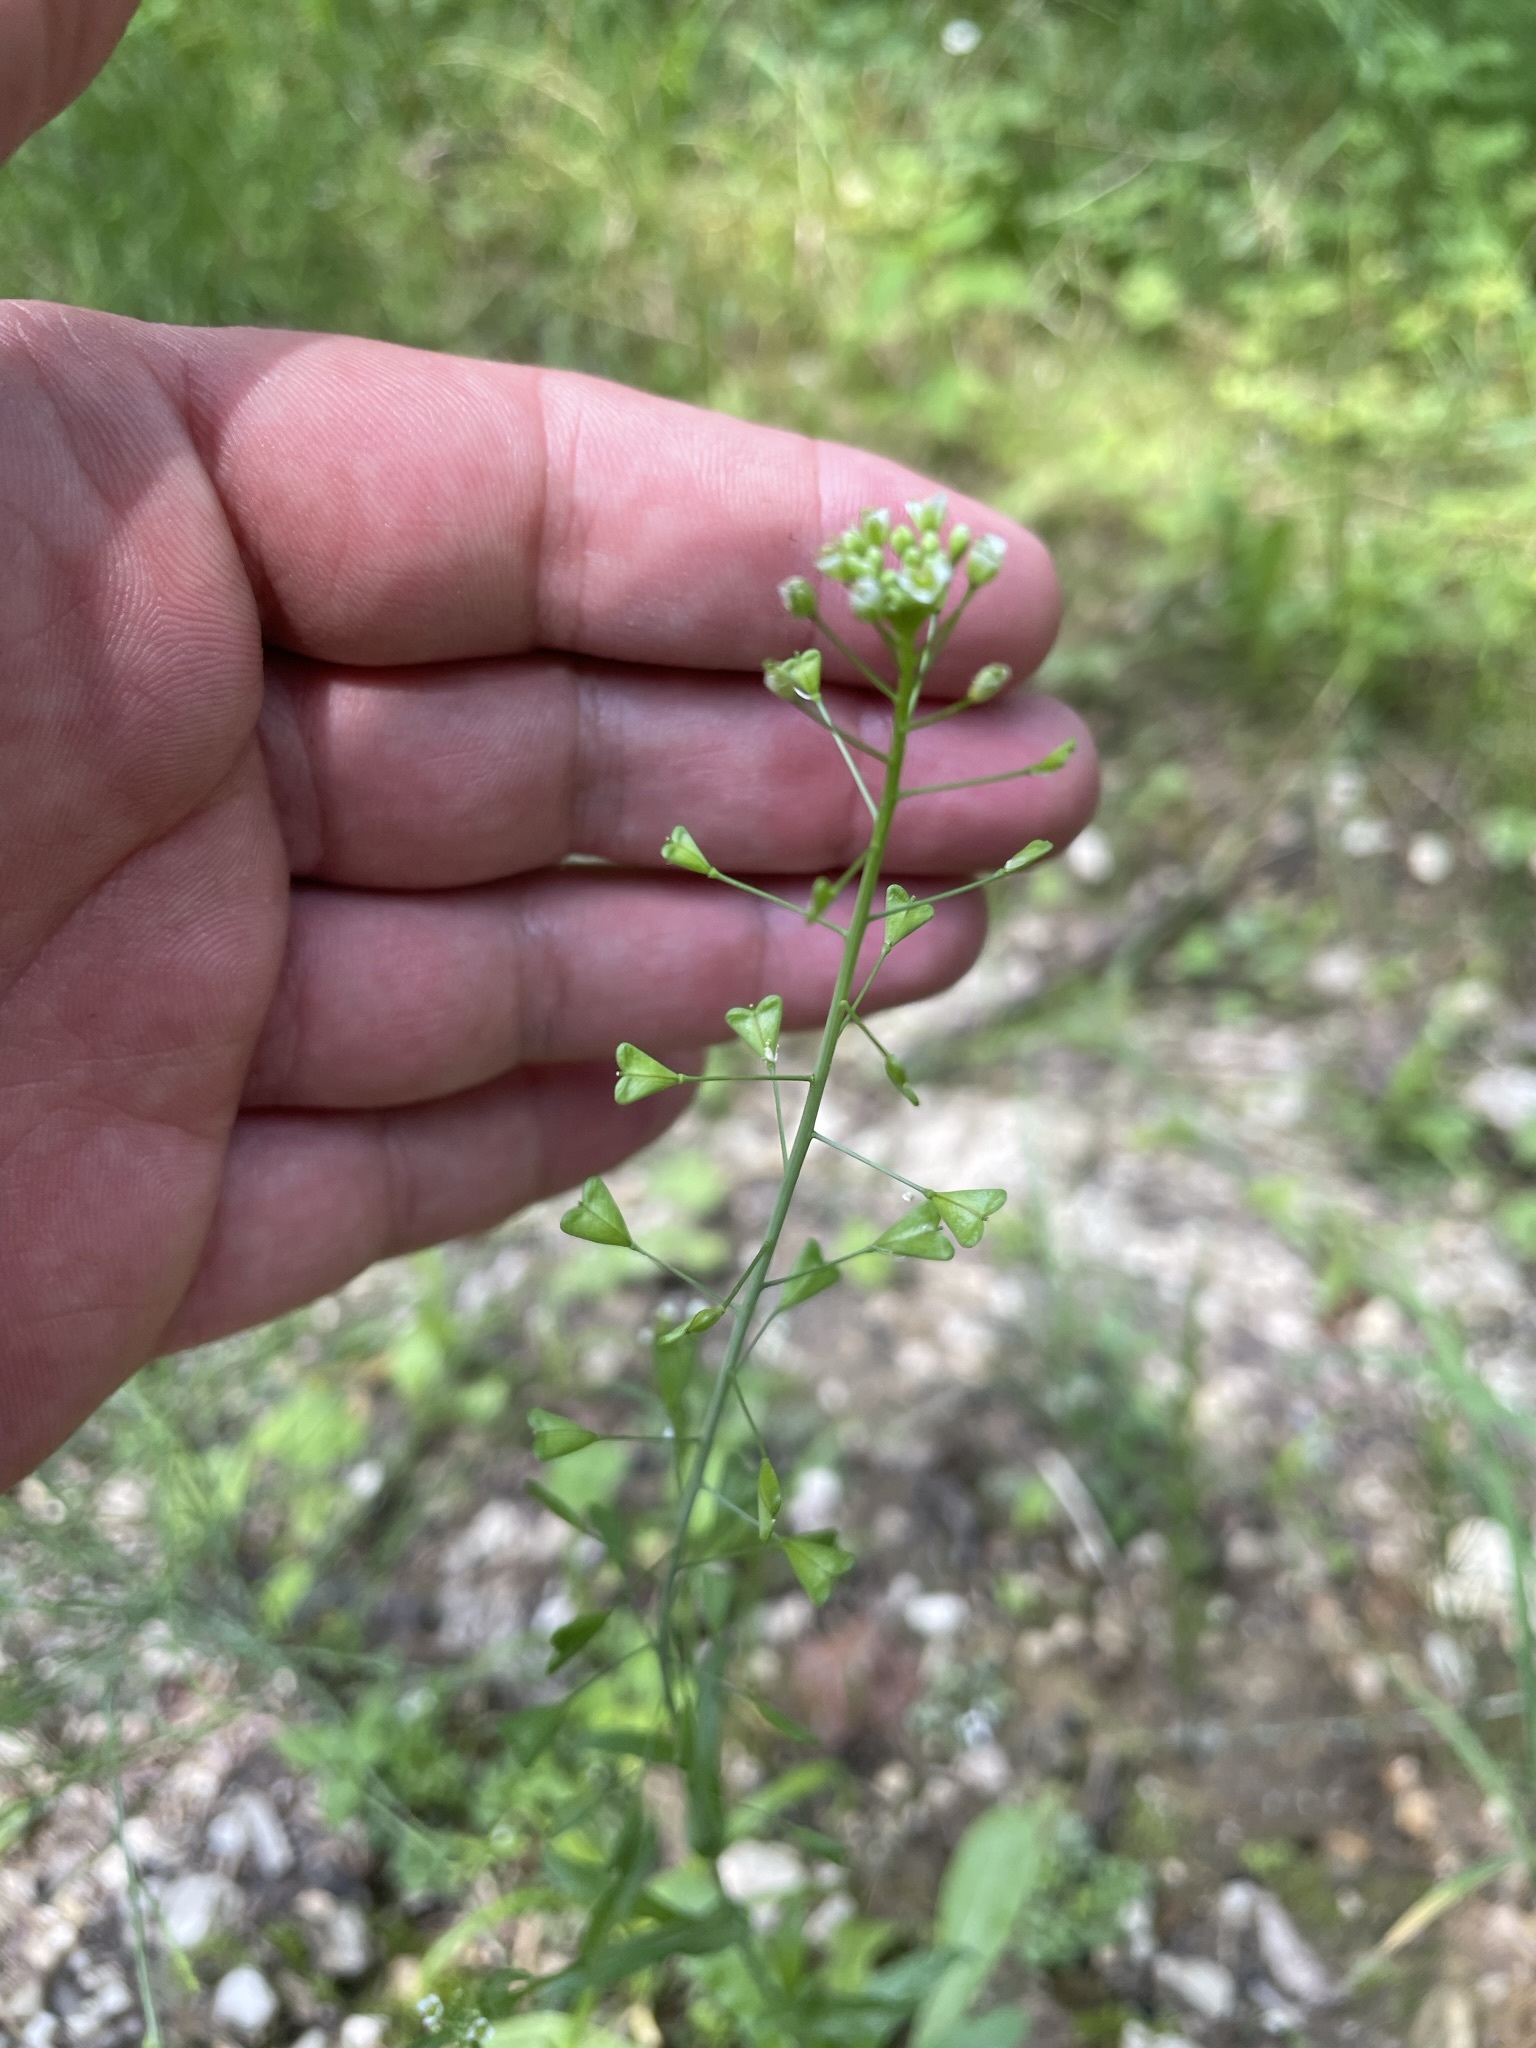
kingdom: Plantae
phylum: Tracheophyta
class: Magnoliopsida
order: Brassicales
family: Brassicaceae
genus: Capsella
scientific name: Capsella bursa-pastoris
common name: Shepherd's purse
